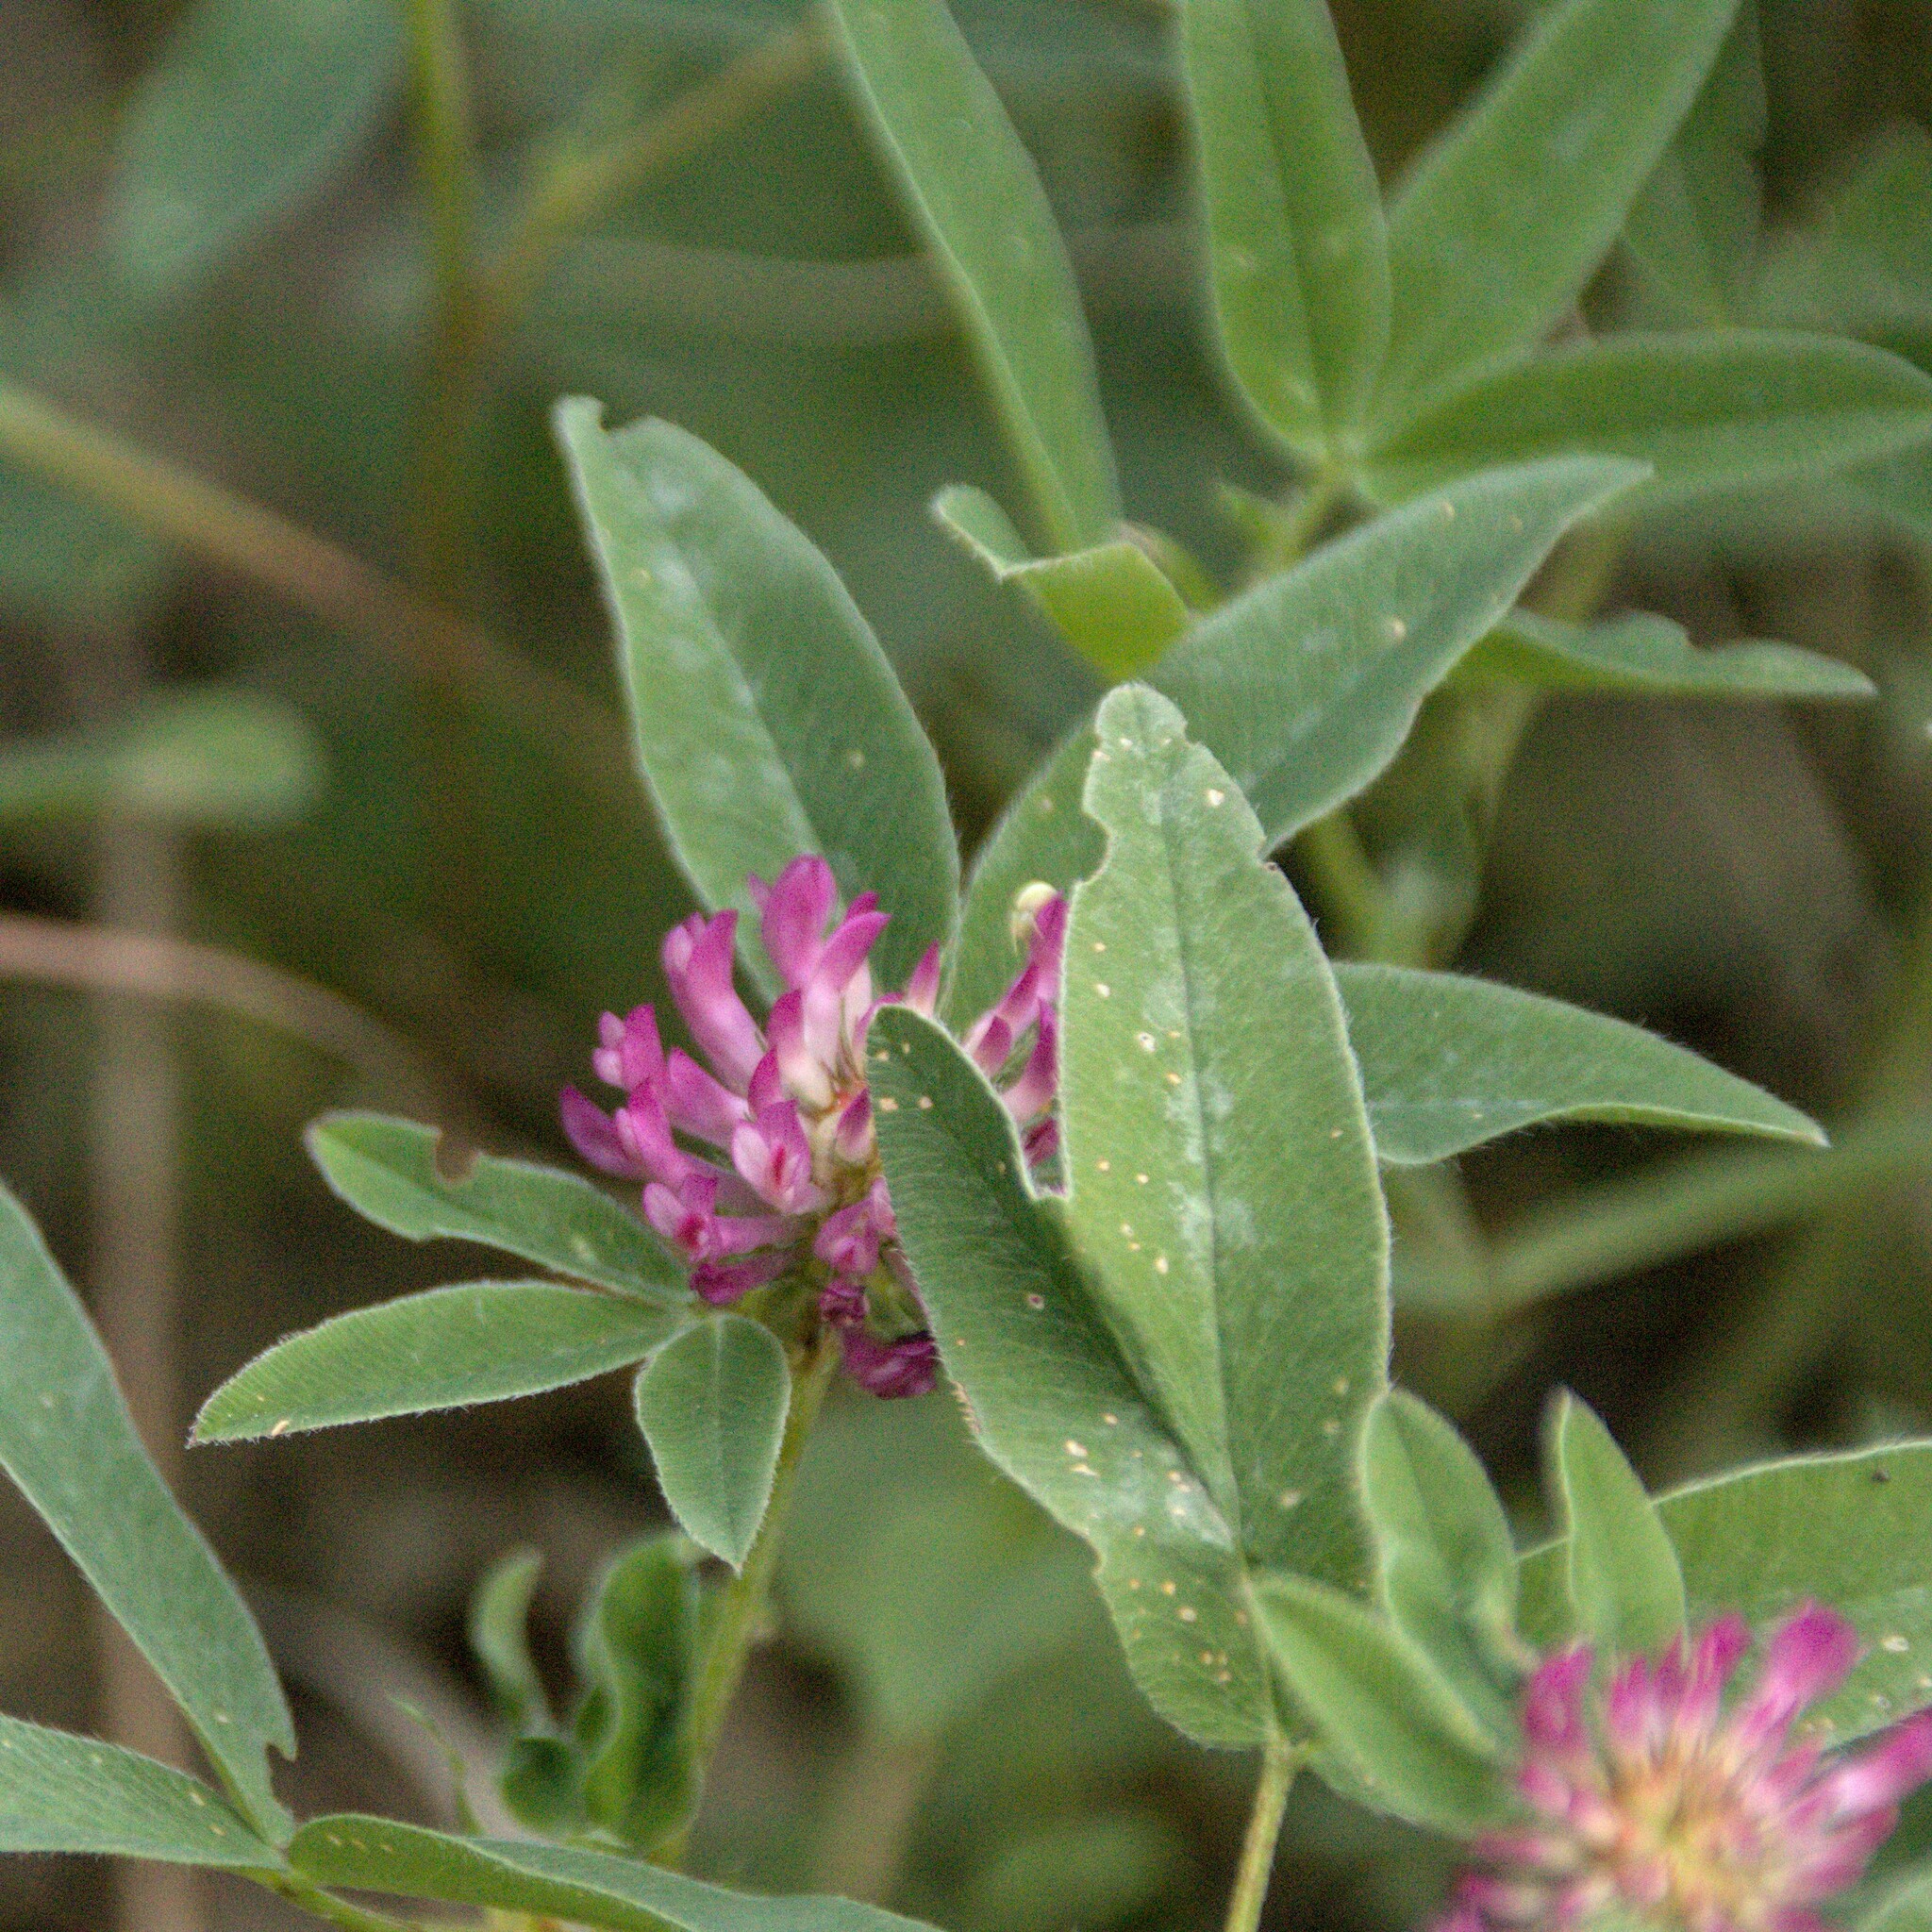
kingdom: Plantae
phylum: Tracheophyta
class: Magnoliopsida
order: Fabales
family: Fabaceae
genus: Trifolium
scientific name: Trifolium medium
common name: Zigzag clover
